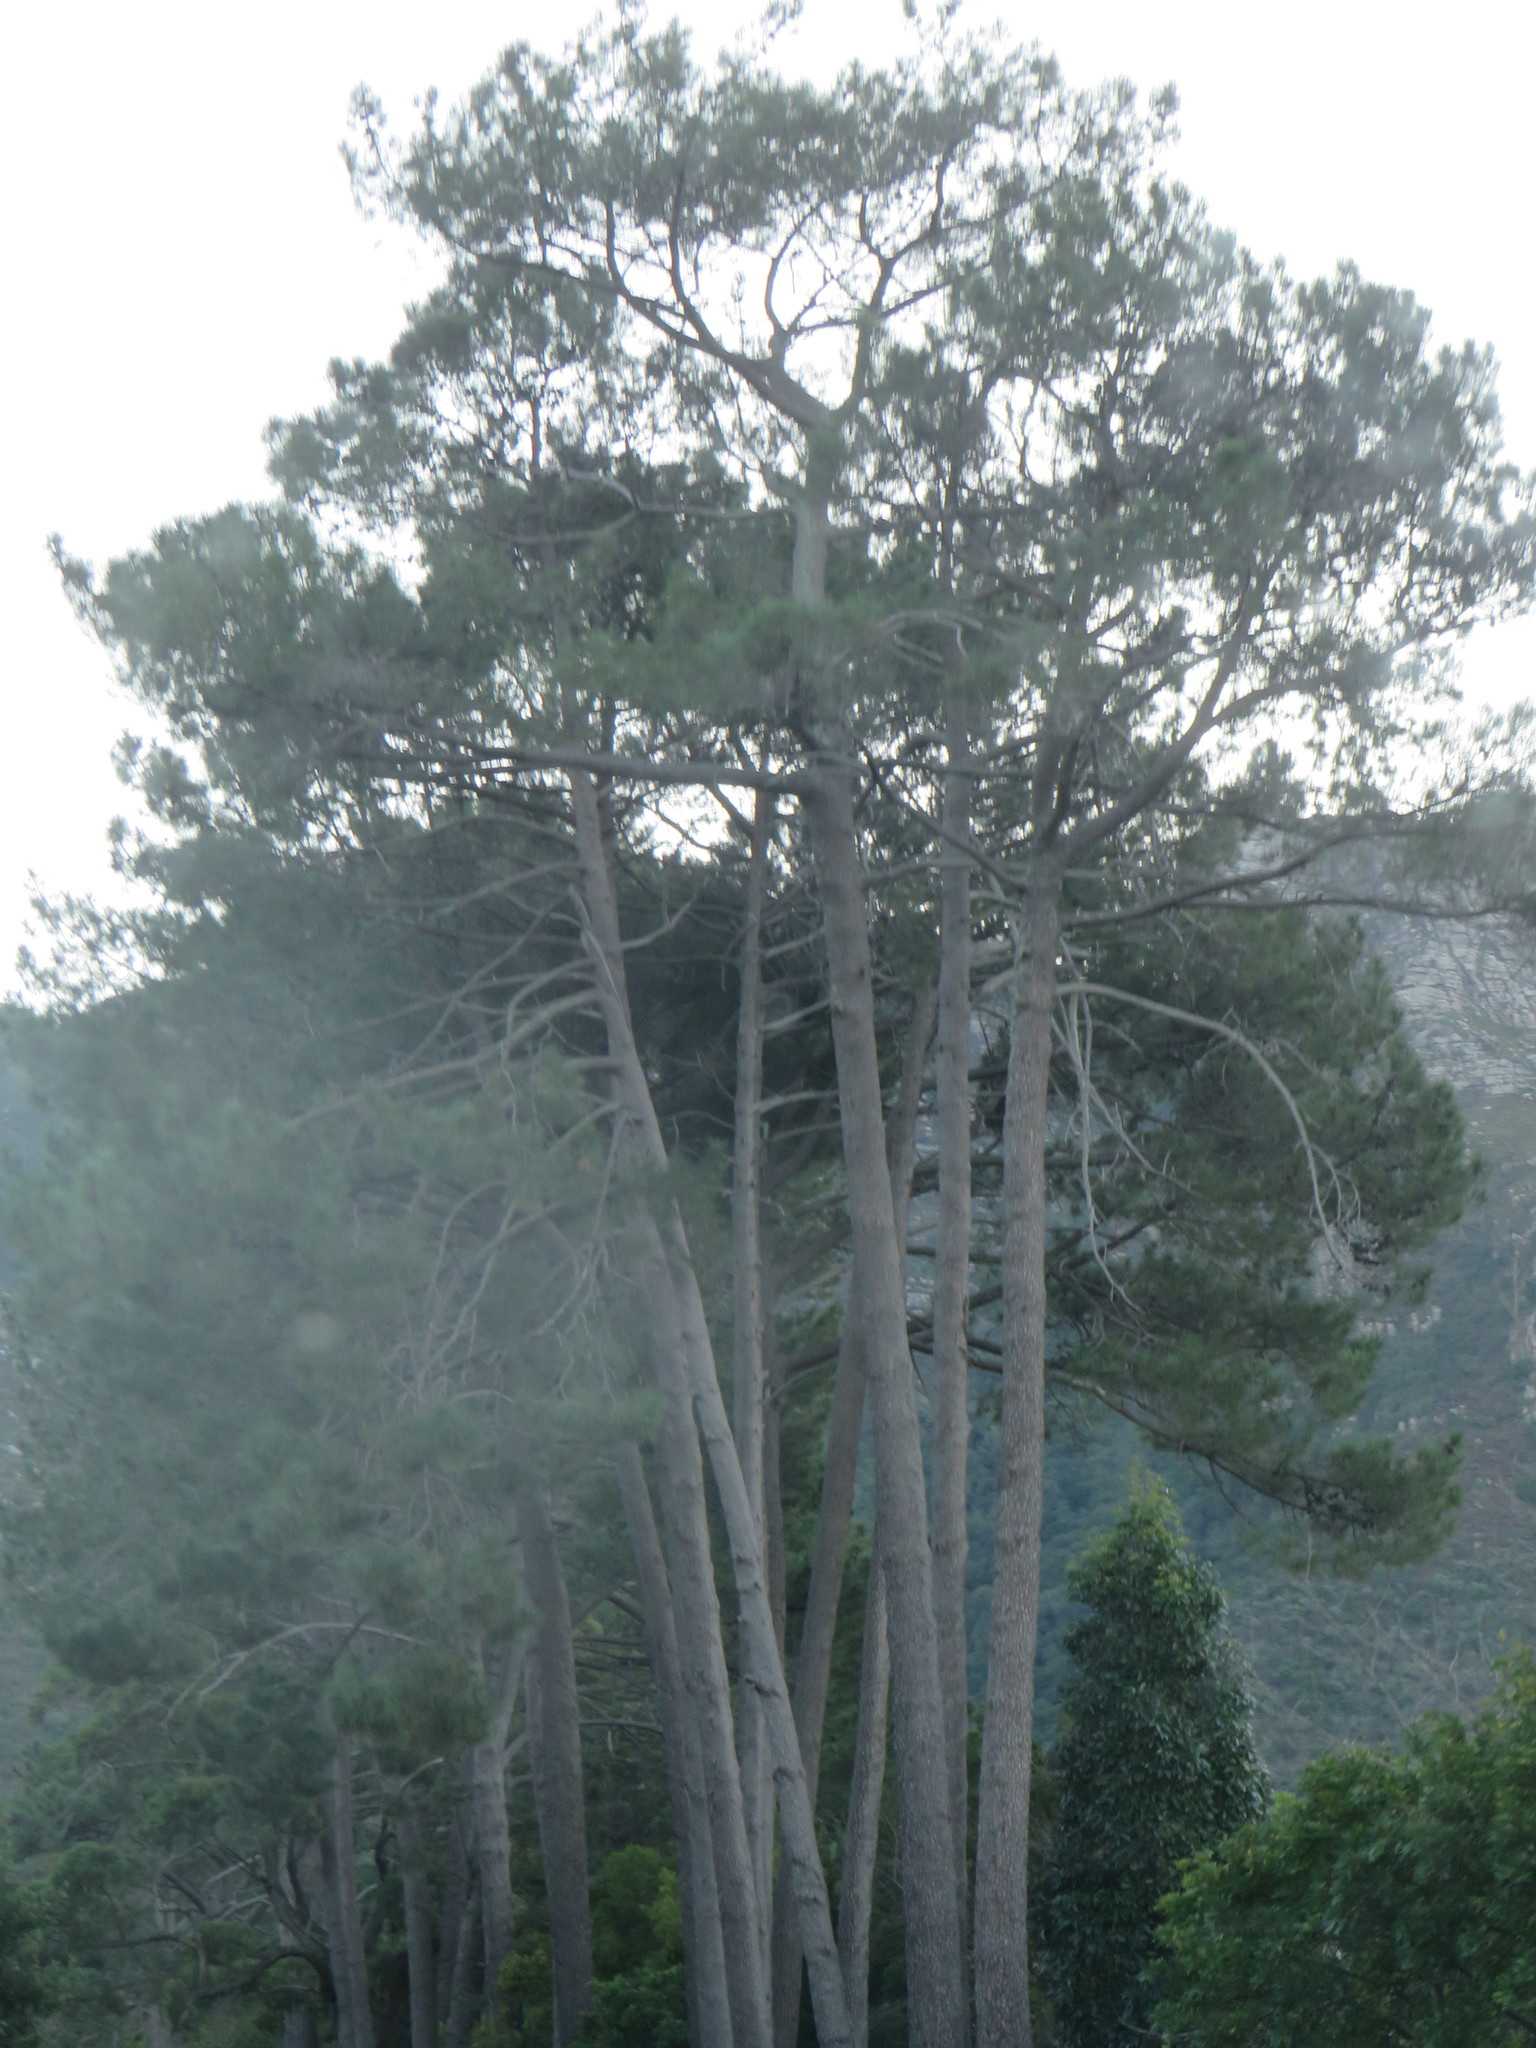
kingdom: Plantae
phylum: Tracheophyta
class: Pinopsida
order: Pinales
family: Pinaceae
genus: Pinus
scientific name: Pinus pinaster
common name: Maritime pine
